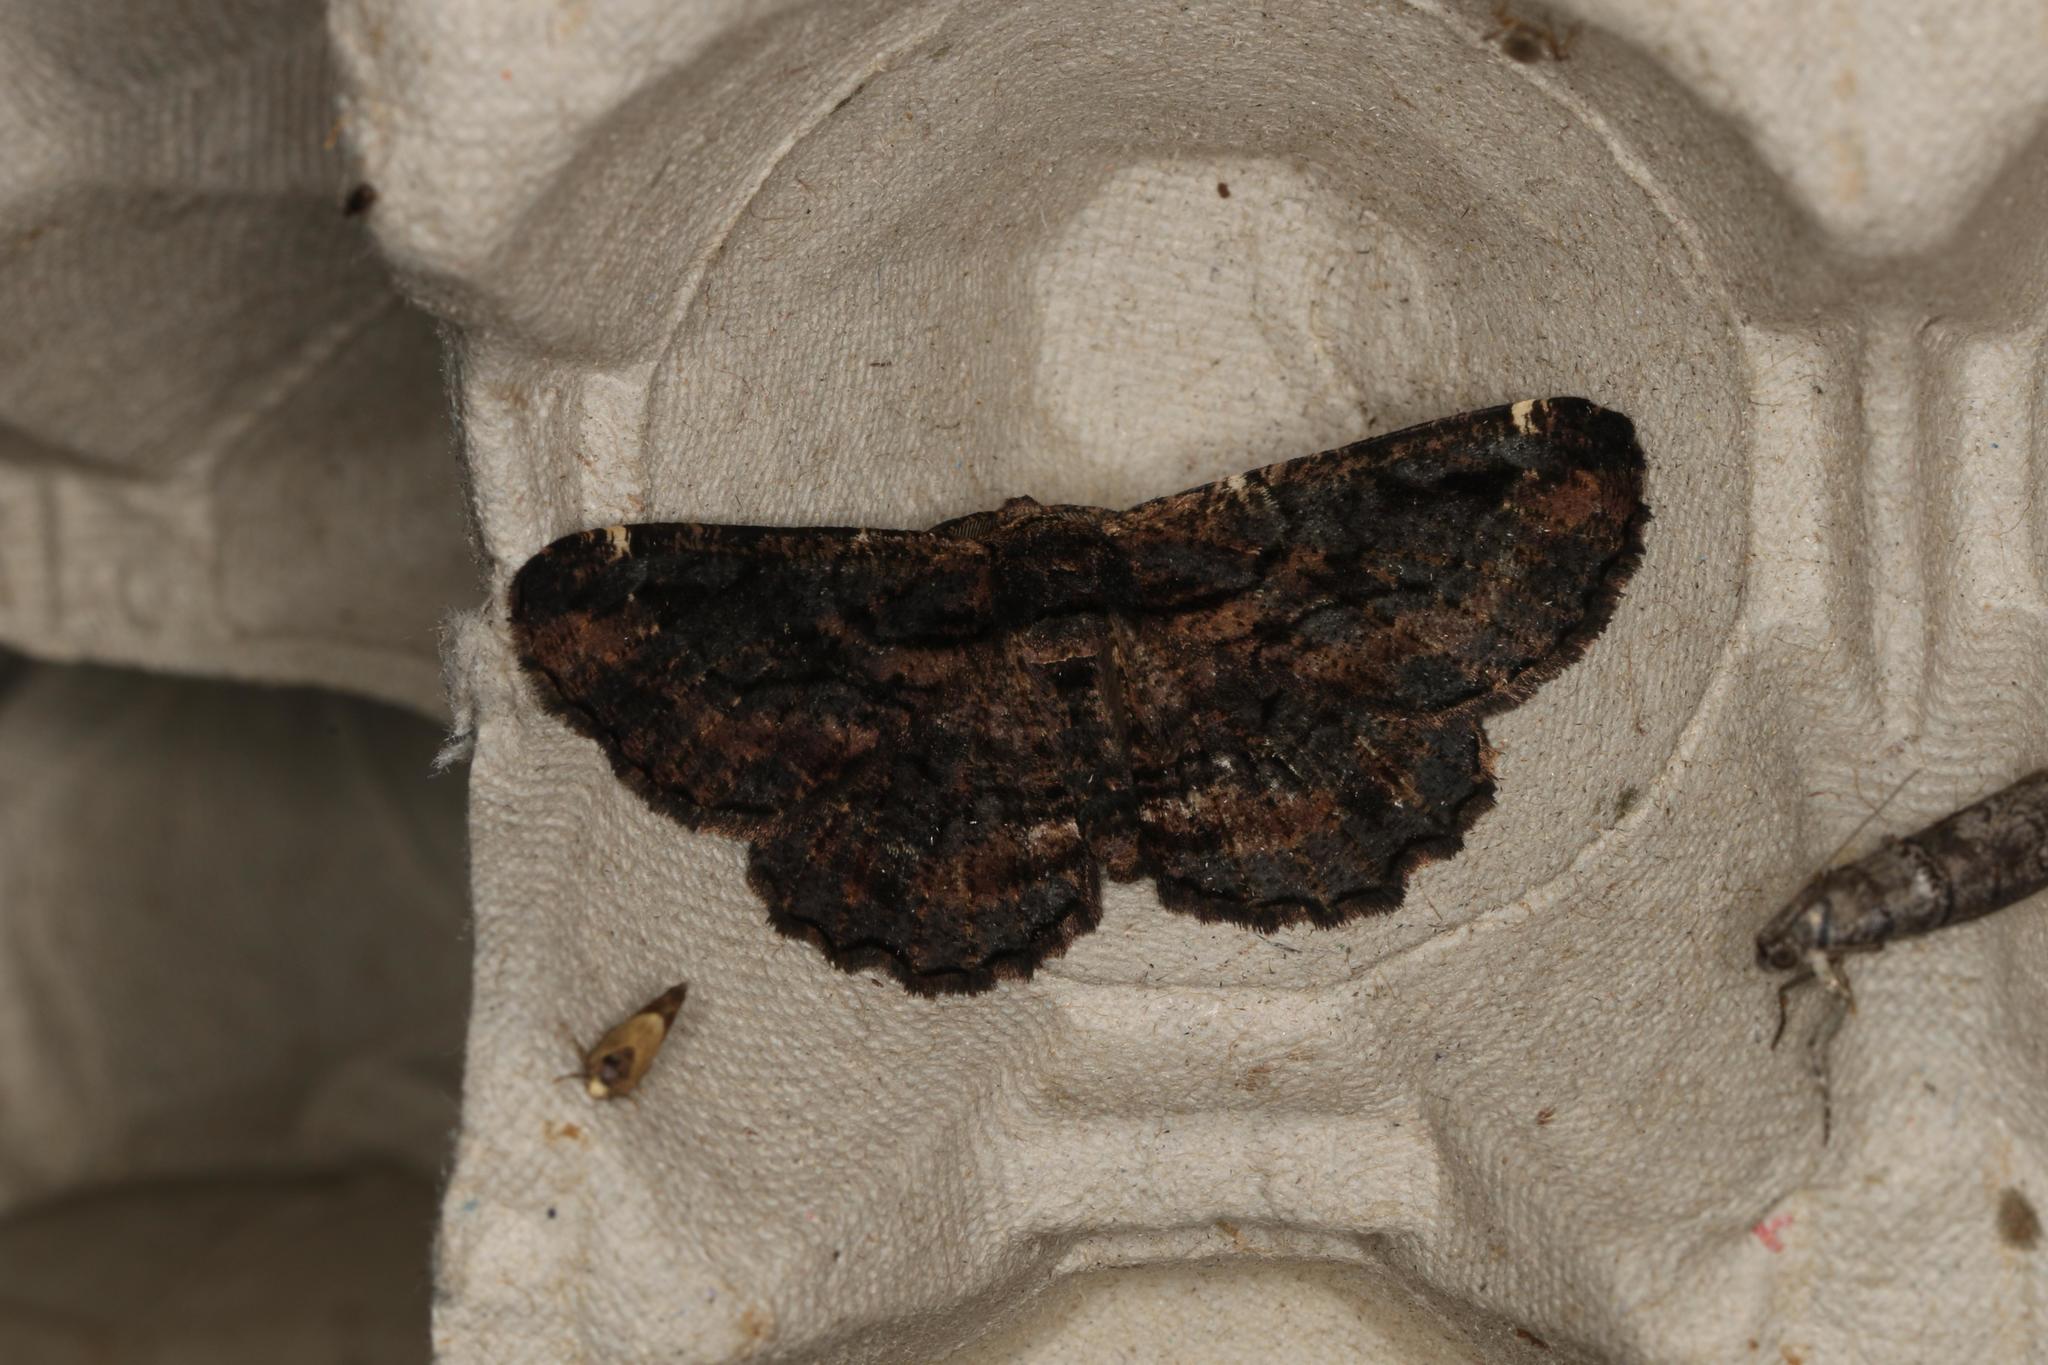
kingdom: Animalia
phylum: Arthropoda
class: Insecta
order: Lepidoptera
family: Geometridae
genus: Pholodes
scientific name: Pholodes sinistraria
